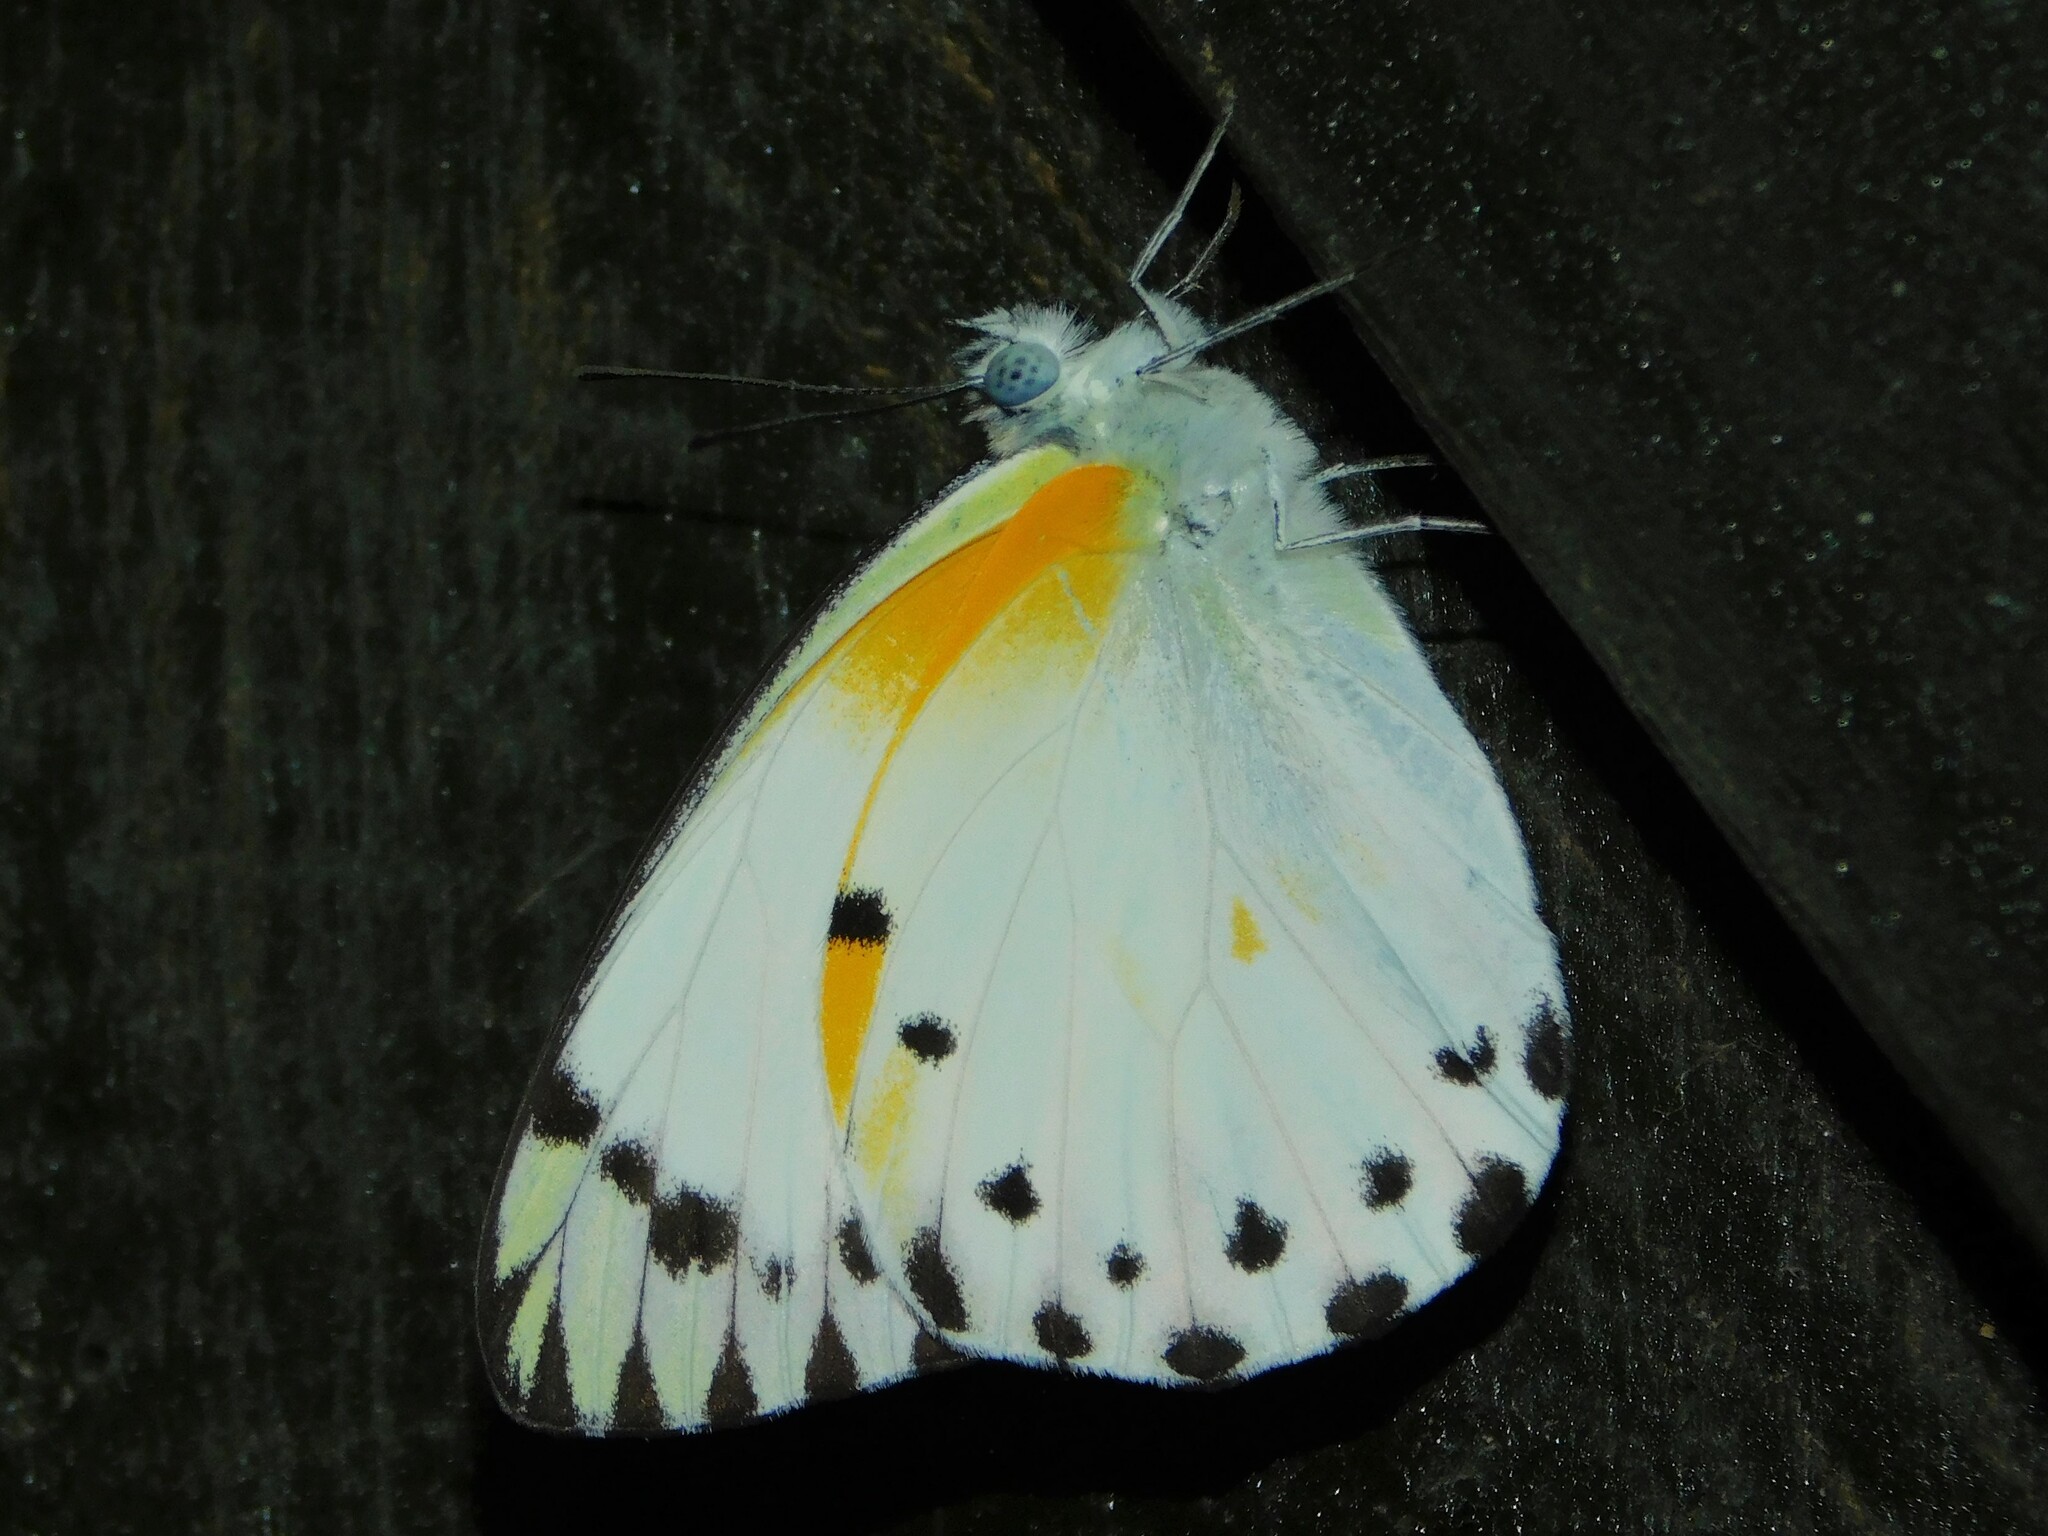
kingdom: Animalia
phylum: Arthropoda
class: Insecta
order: Lepidoptera
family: Pieridae
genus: Belenois
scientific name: Belenois theora
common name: Forest caper white
